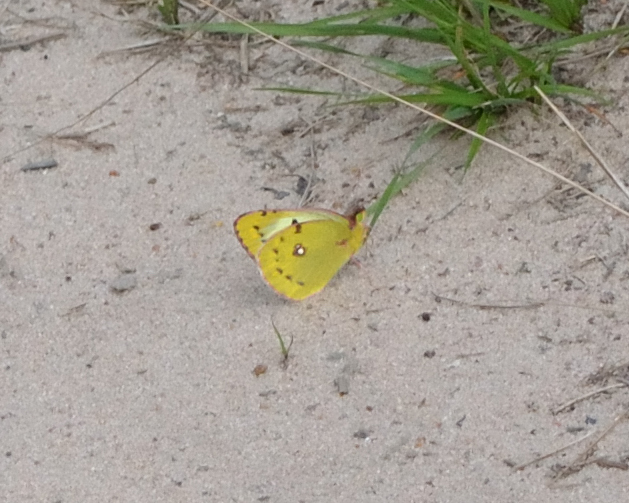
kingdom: Animalia
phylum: Arthropoda
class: Insecta
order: Lepidoptera
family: Pieridae
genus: Colias
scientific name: Colias hyale
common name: Pale clouded yellow
